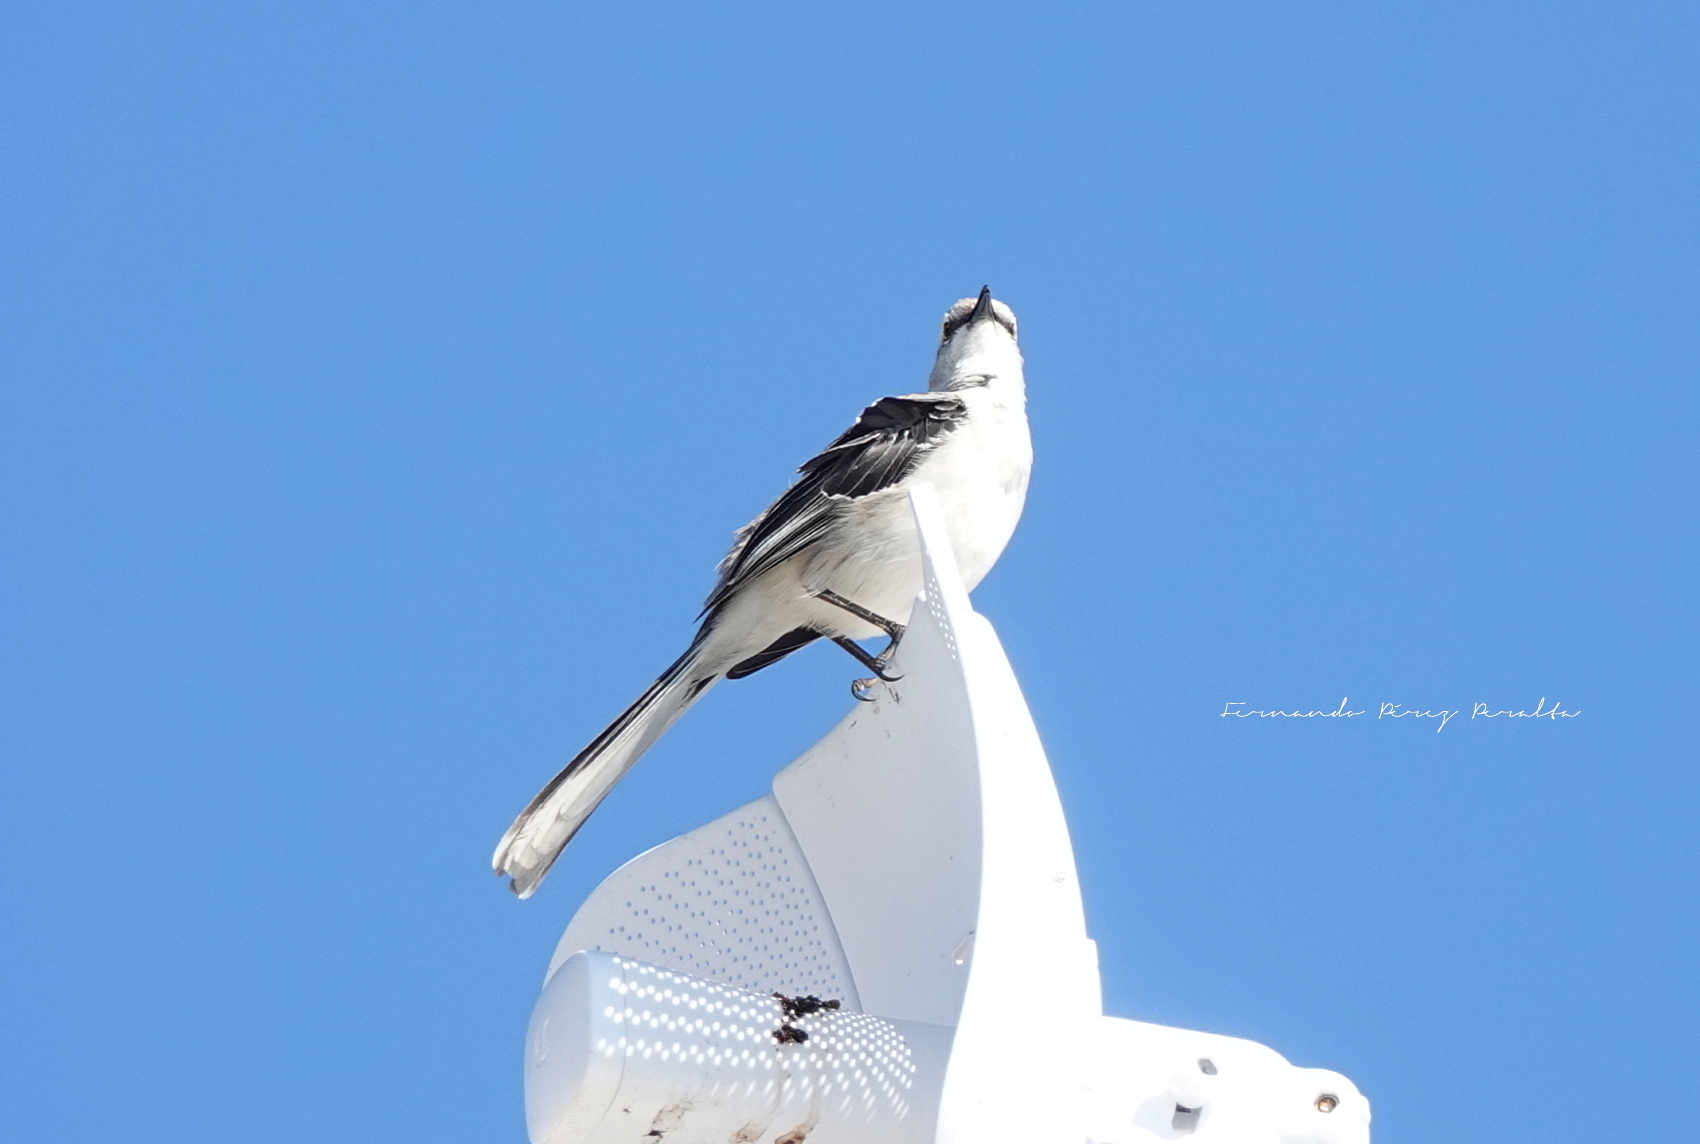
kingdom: Animalia
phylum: Chordata
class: Aves
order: Passeriformes
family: Mimidae
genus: Mimus
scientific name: Mimus gilvus
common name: Tropical mockingbird
